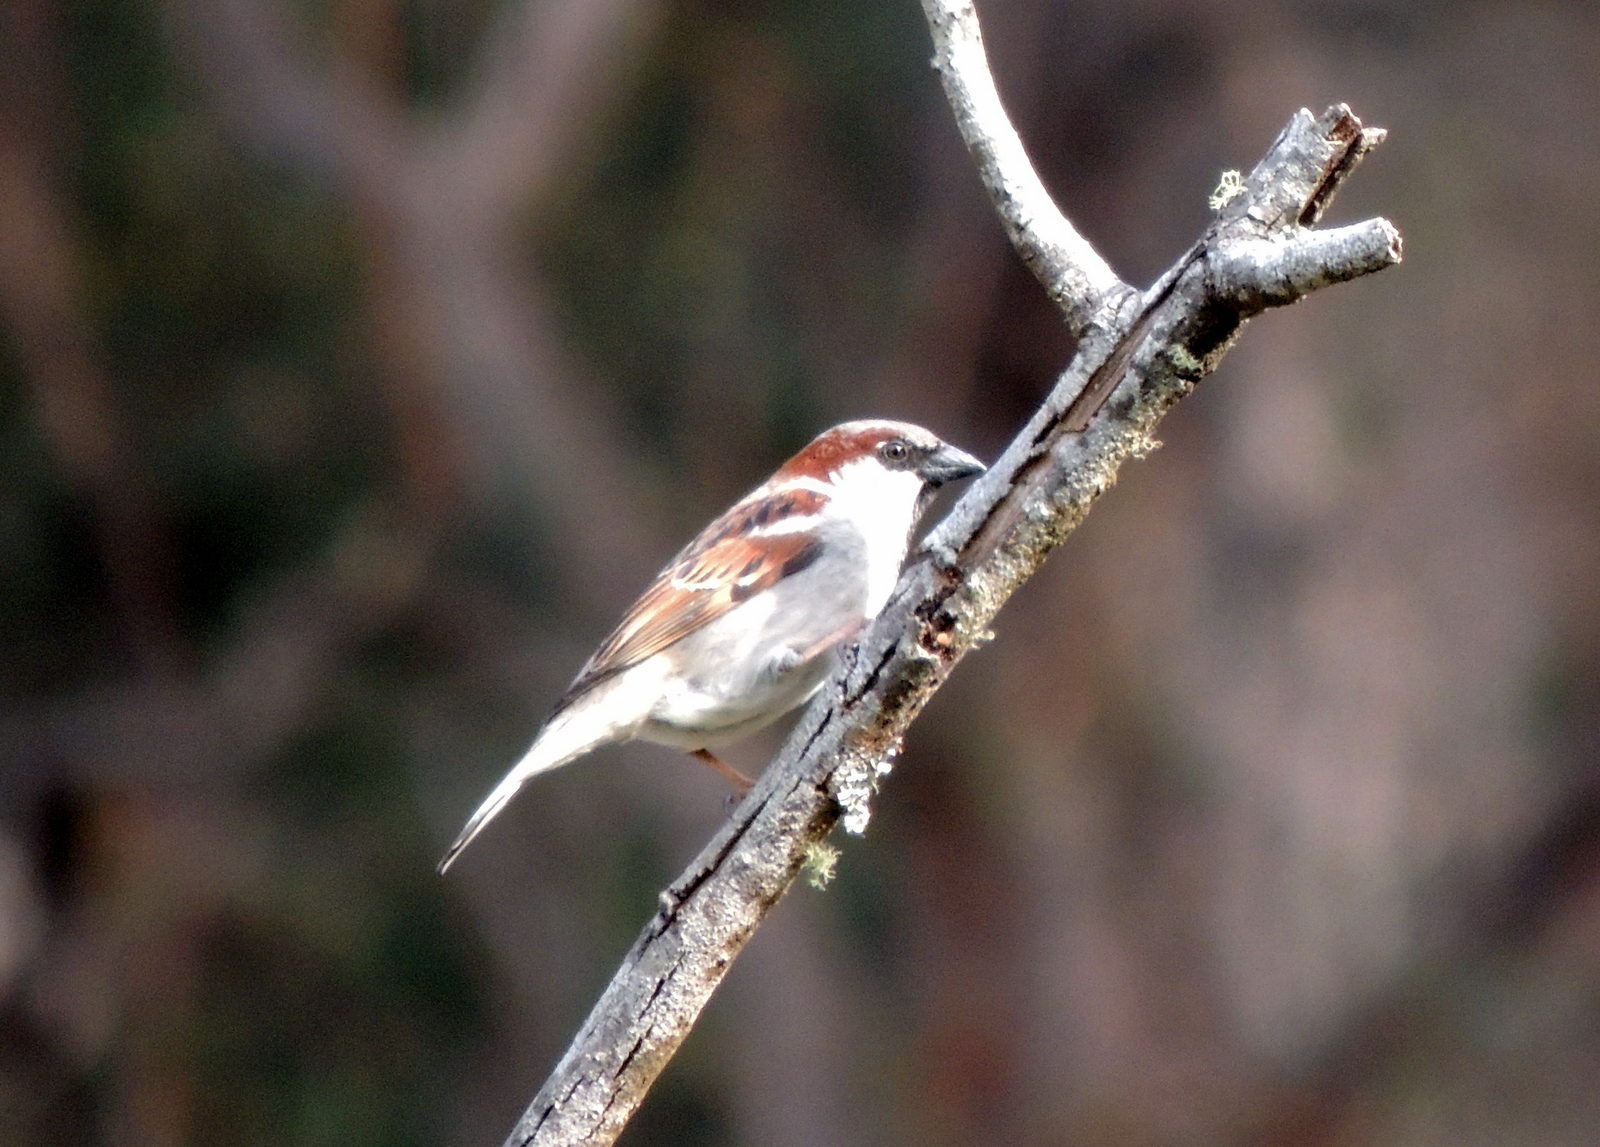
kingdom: Animalia
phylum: Chordata
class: Aves
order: Passeriformes
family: Passeridae
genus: Passer
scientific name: Passer domesticus
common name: House sparrow
